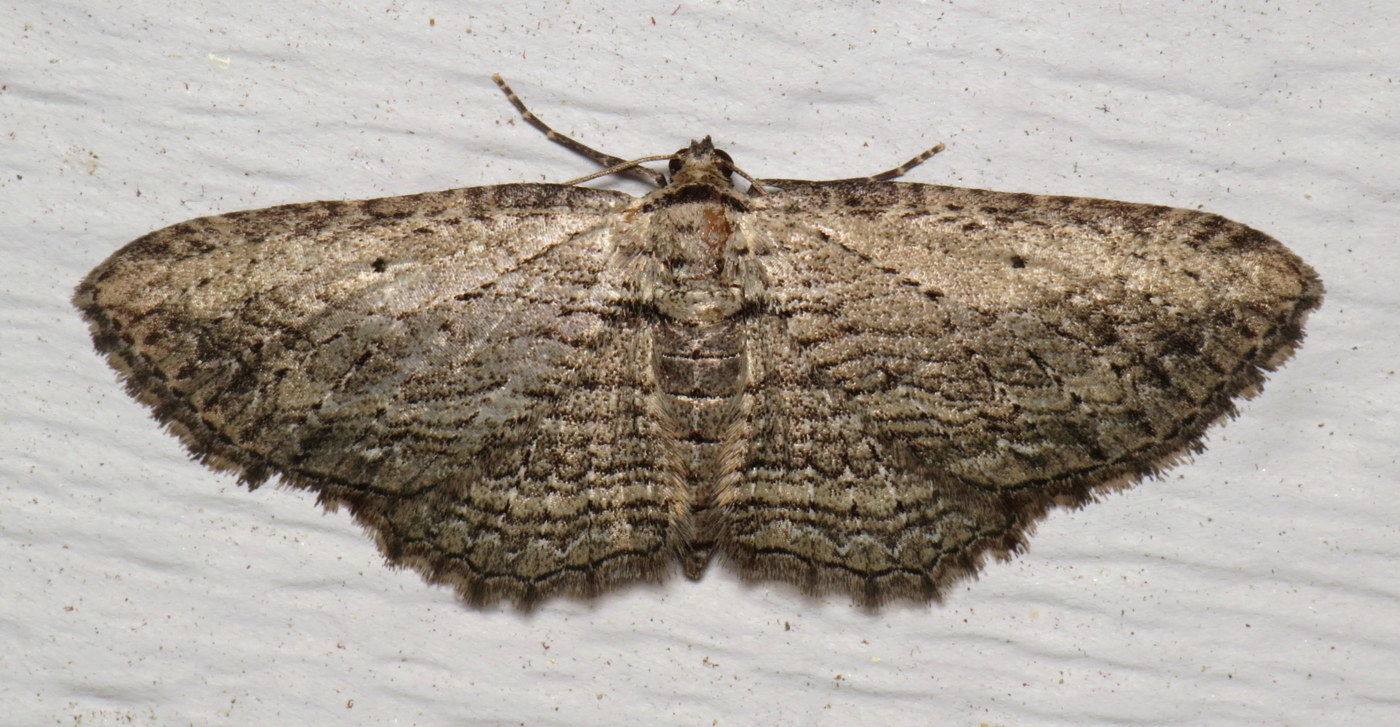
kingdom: Animalia
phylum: Arthropoda
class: Insecta
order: Lepidoptera
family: Geometridae
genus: Horisme
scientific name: Horisme intestinata
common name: Brown bark carpet
